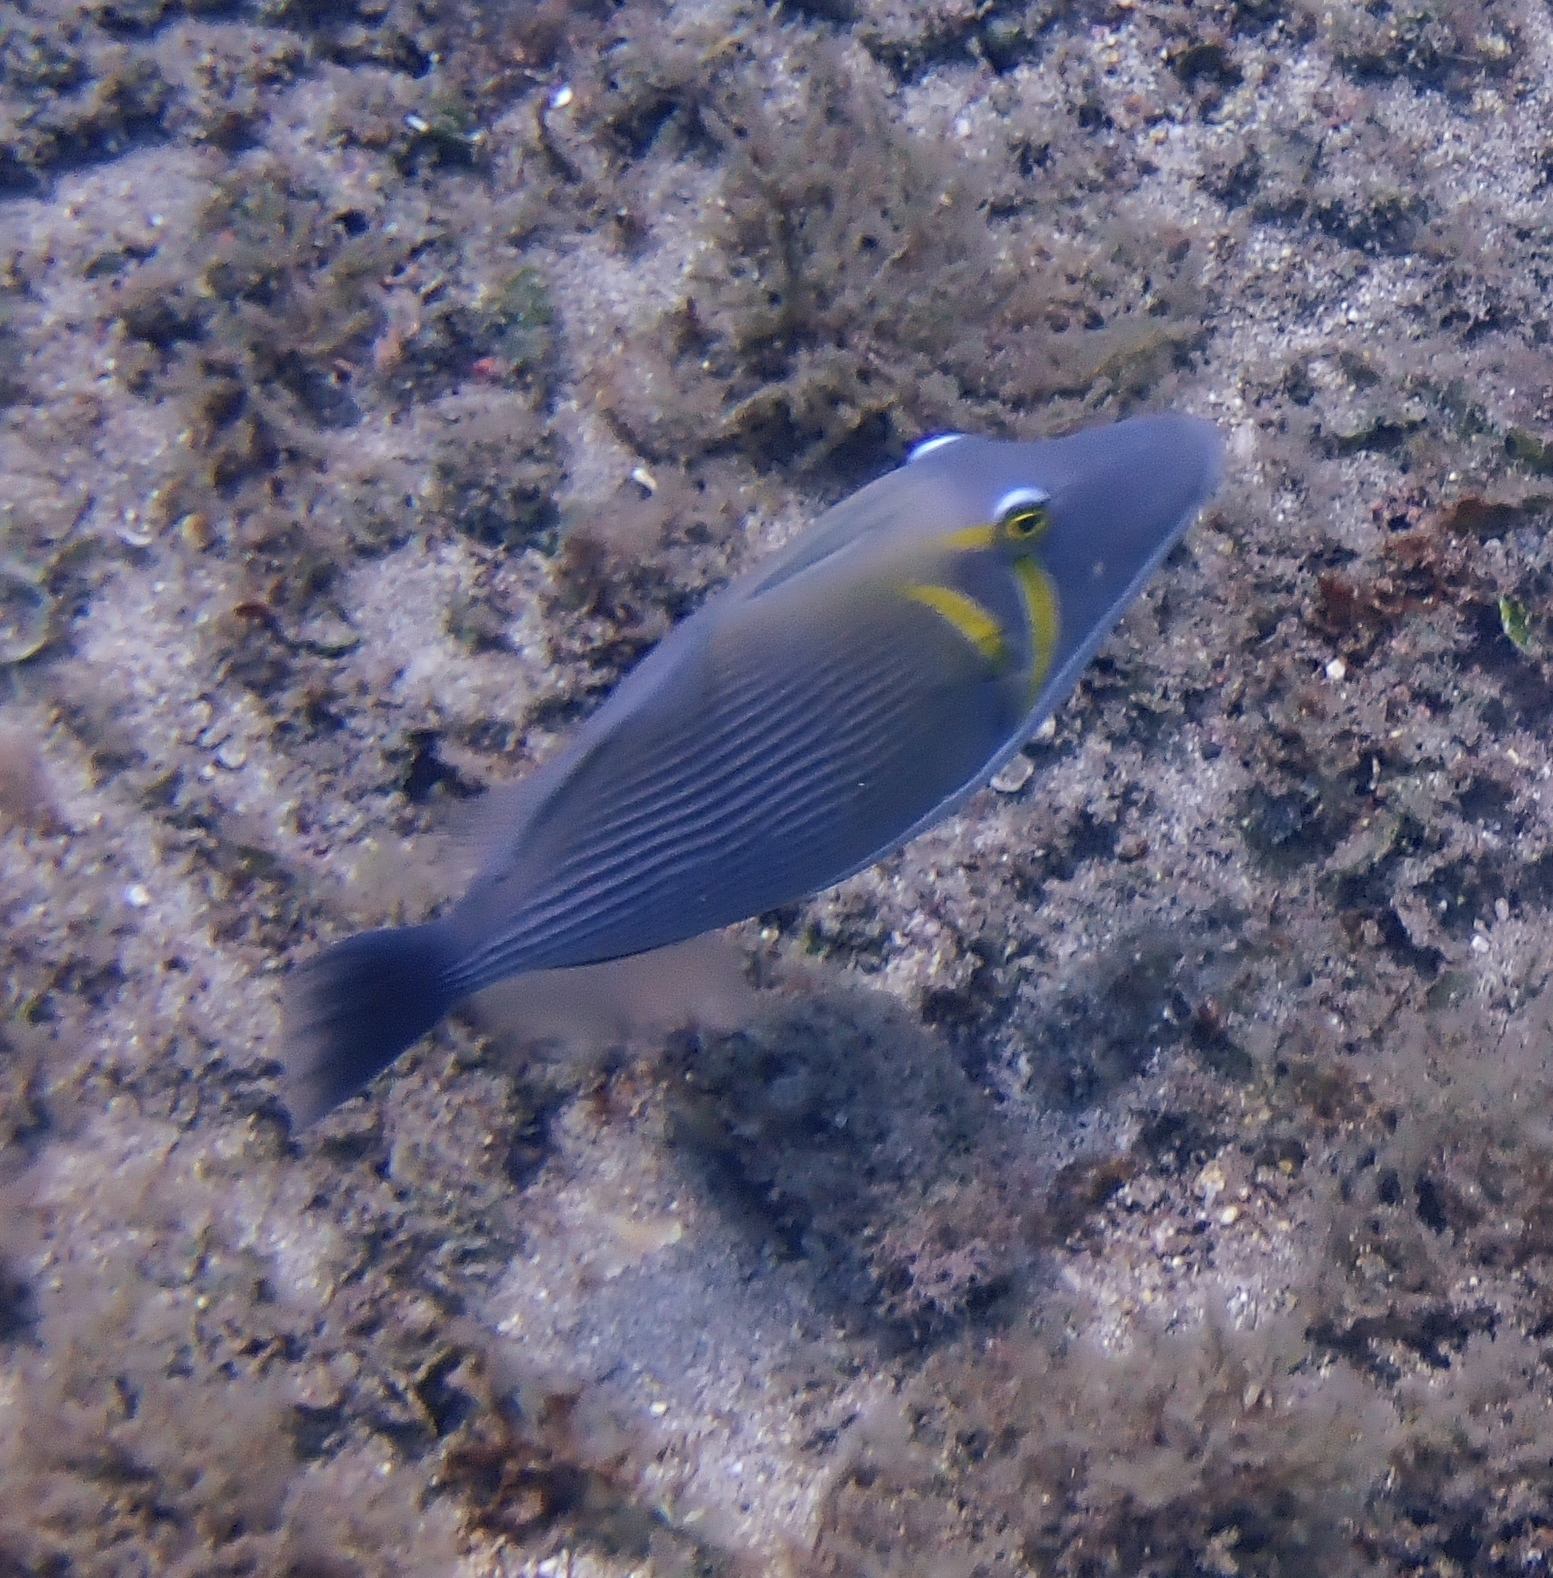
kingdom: Animalia
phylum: Chordata
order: Tetraodontiformes
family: Balistidae
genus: Sufflamen
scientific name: Sufflamen bursa
